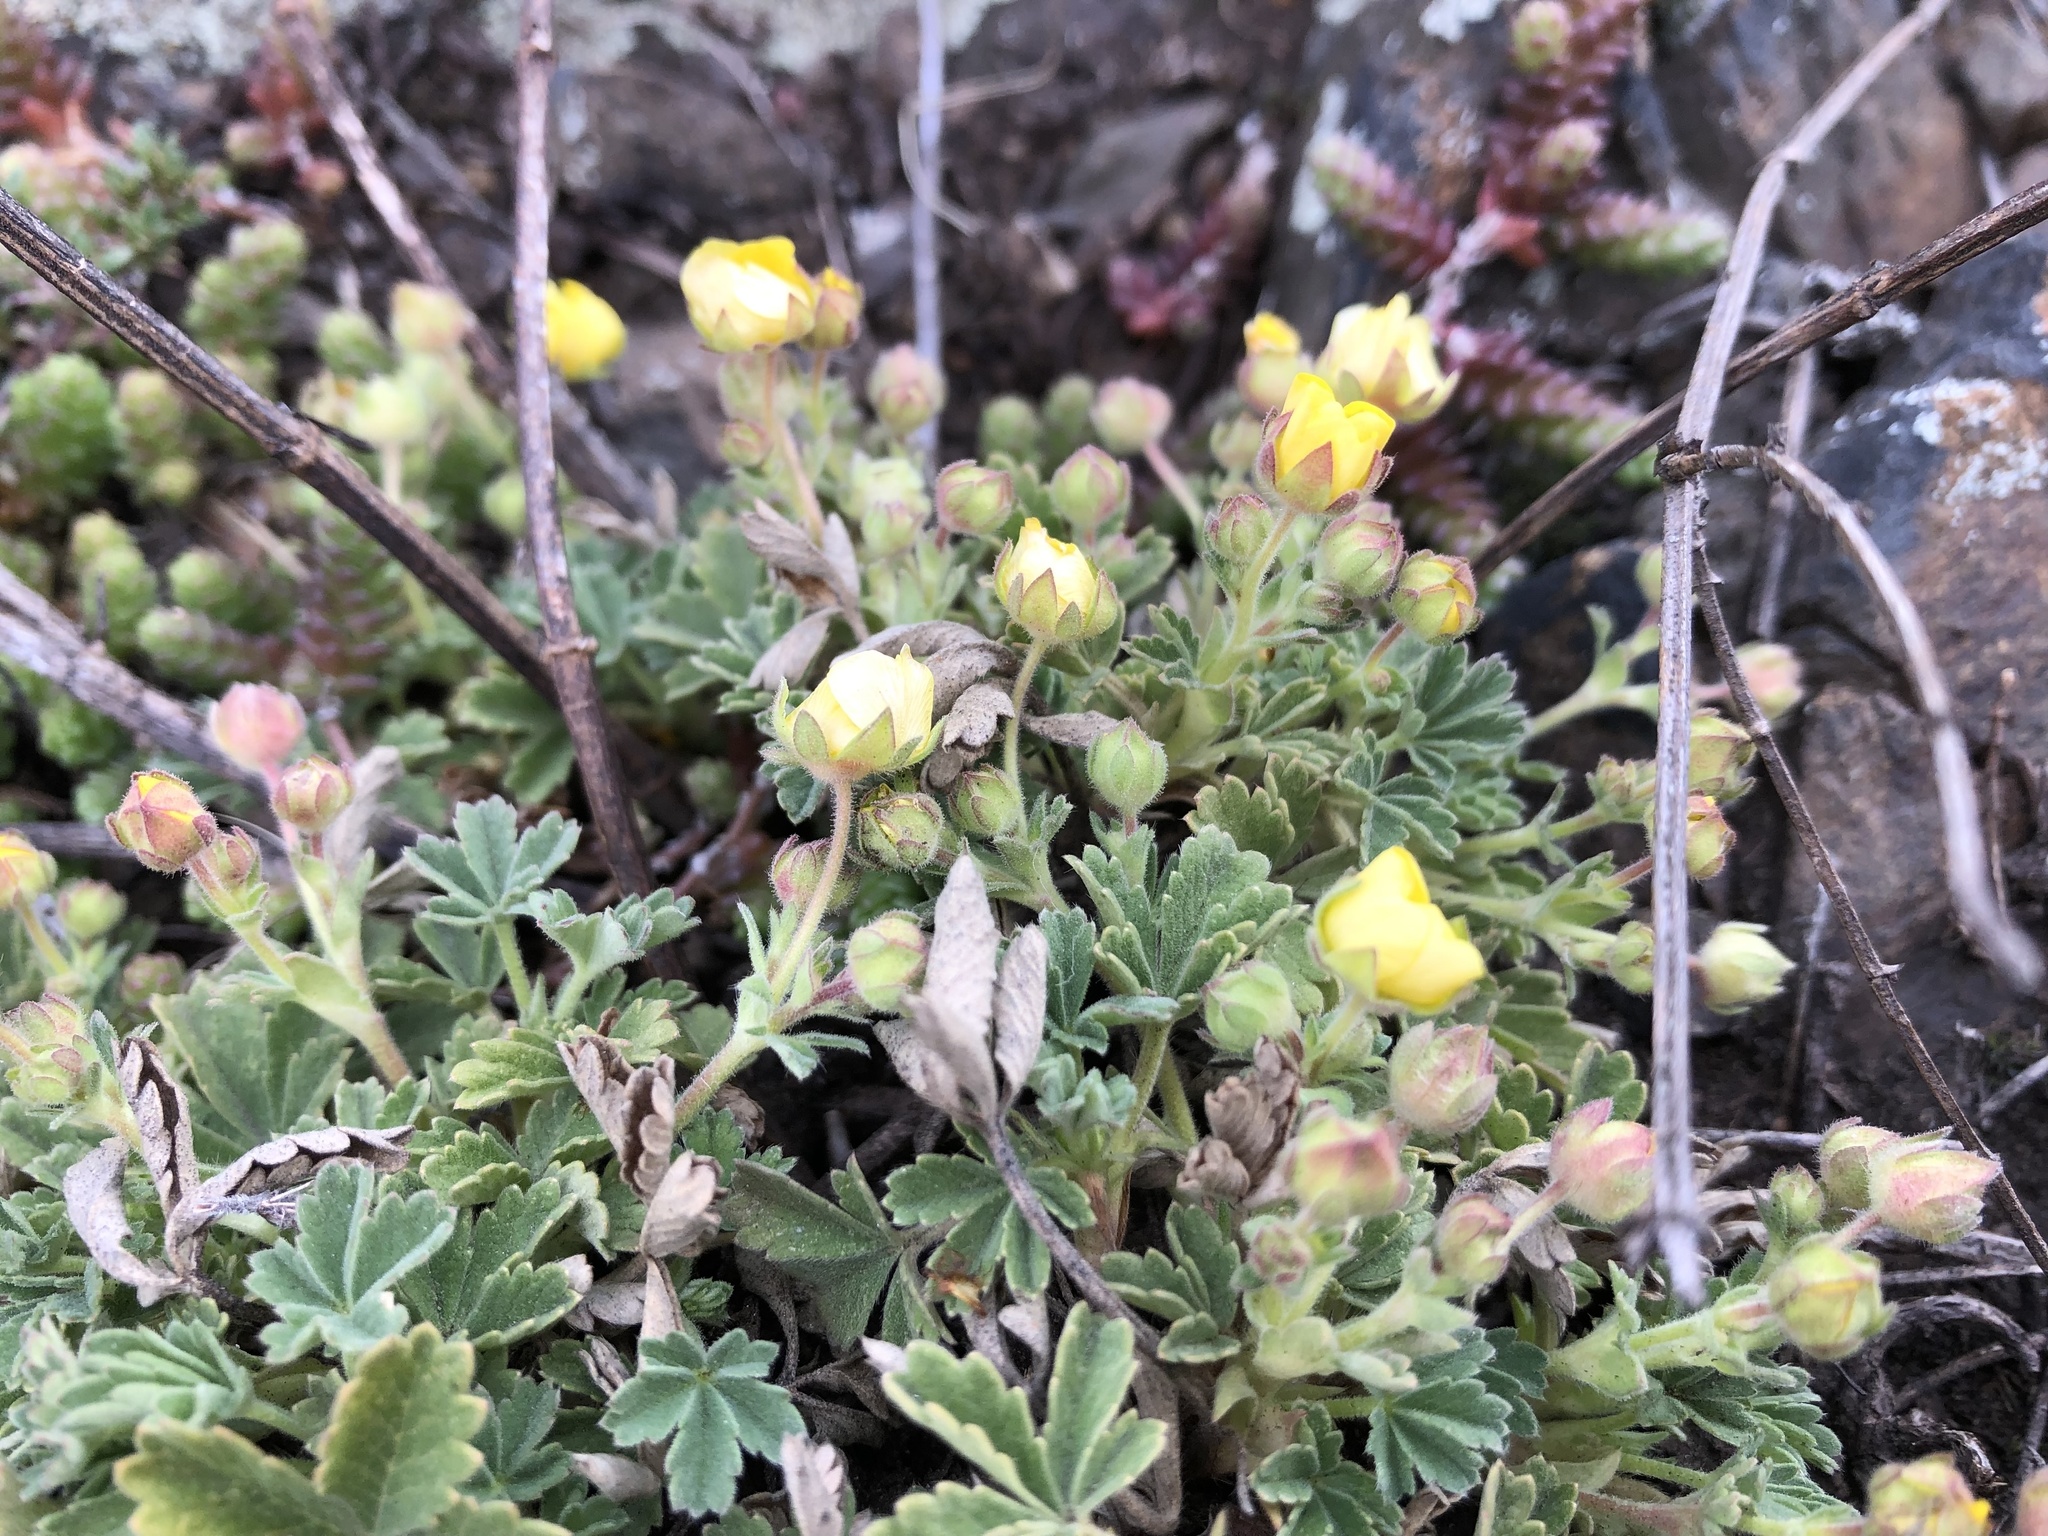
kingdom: Plantae
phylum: Tracheophyta
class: Magnoliopsida
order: Rosales
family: Rosaceae
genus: Potentilla
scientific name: Potentilla incana
